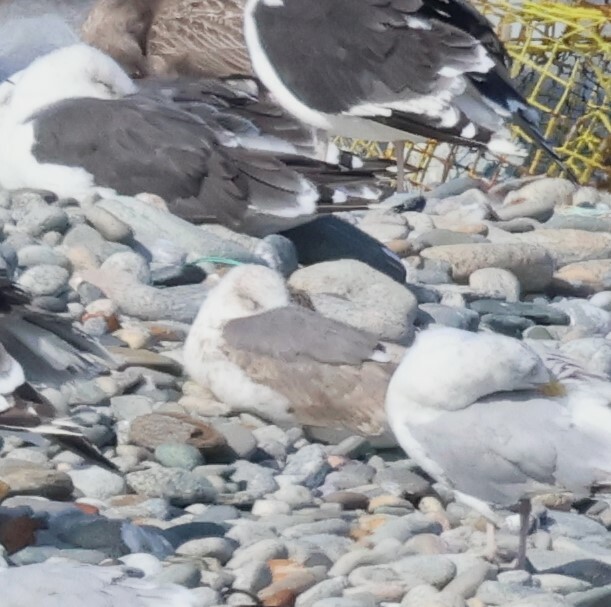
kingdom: Animalia
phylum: Chordata
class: Aves
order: Charadriiformes
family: Laridae
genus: Larus
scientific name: Larus fuscus
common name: Lesser black-backed gull
